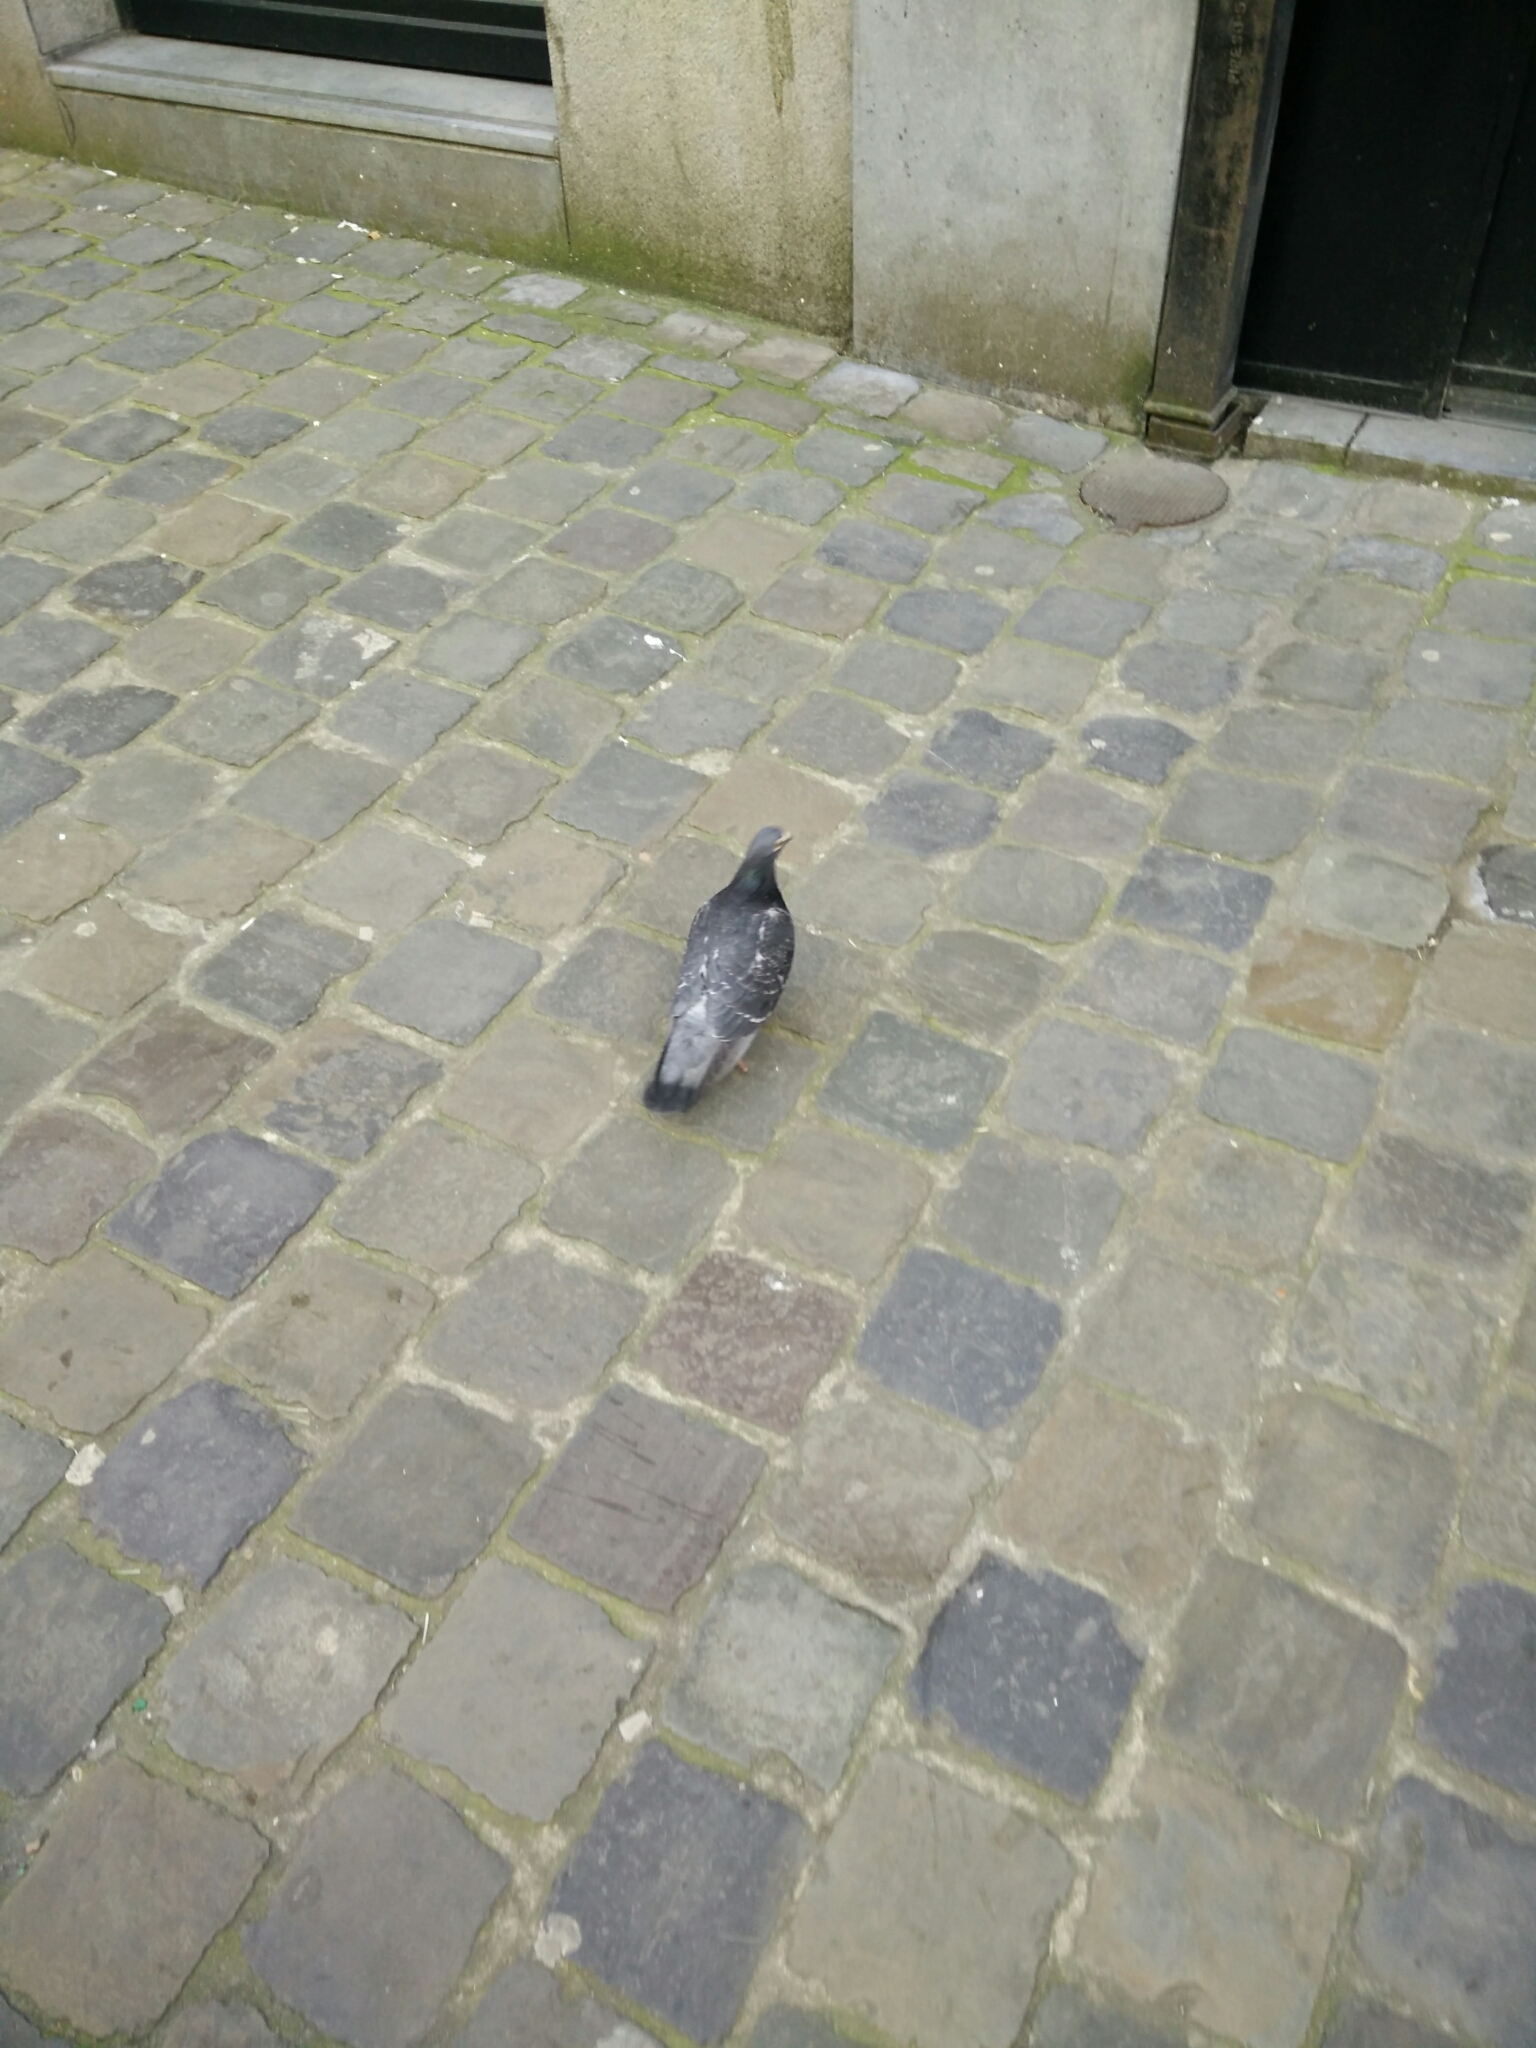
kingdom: Animalia
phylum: Chordata
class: Aves
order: Columbiformes
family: Columbidae
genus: Columba
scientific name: Columba livia
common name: Rock pigeon
